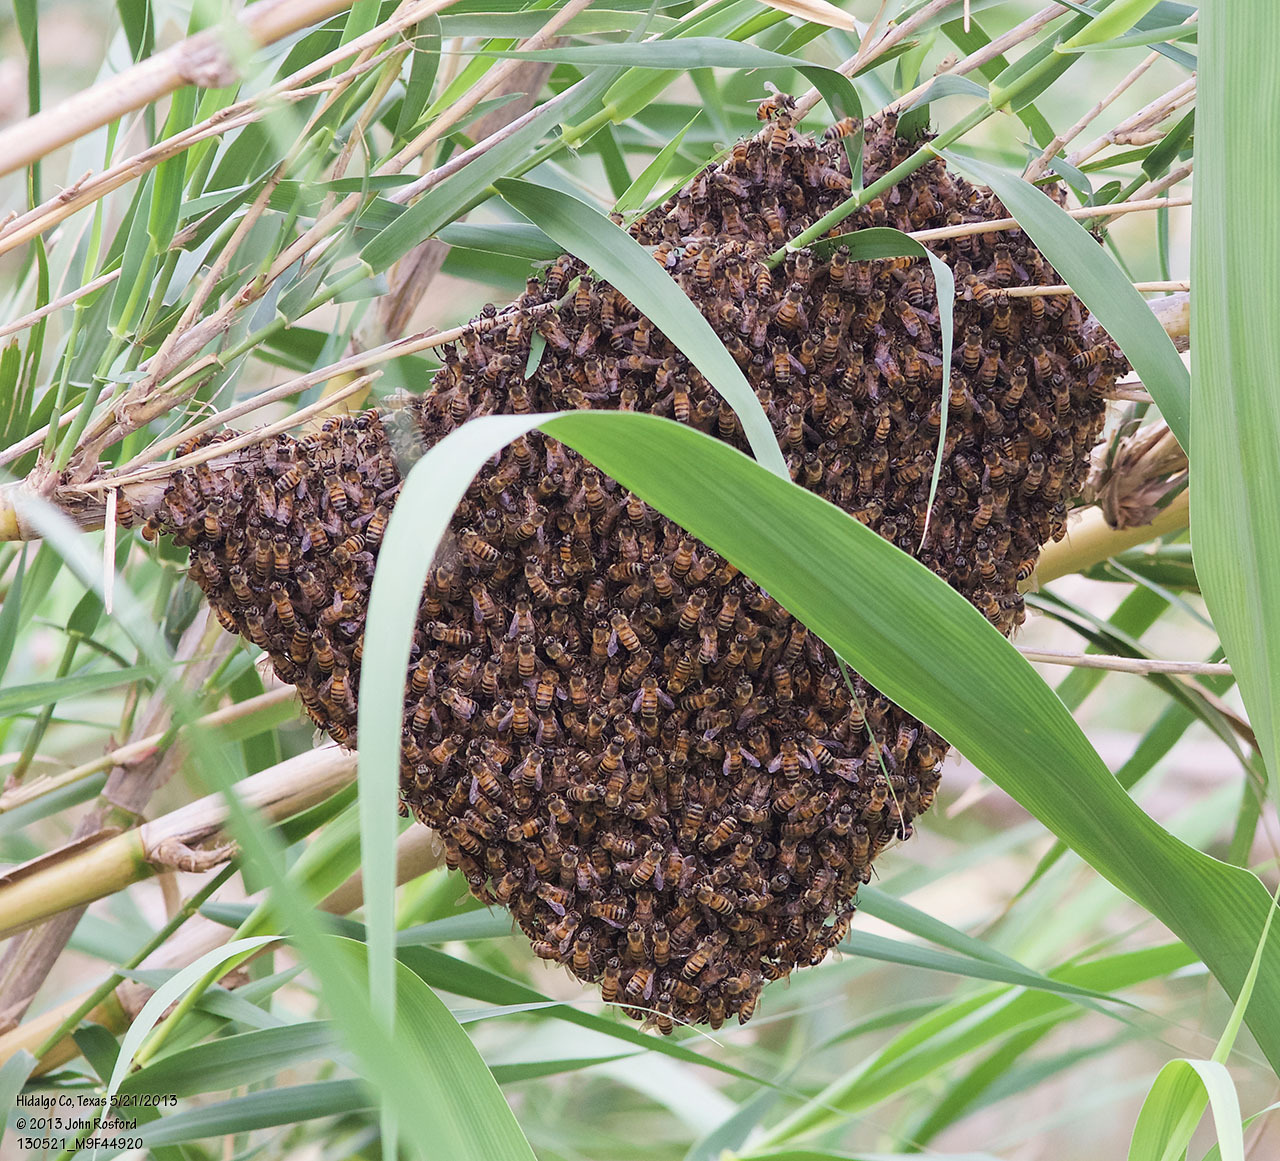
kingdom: Animalia
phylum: Arthropoda
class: Insecta
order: Hymenoptera
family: Apidae
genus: Apis
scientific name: Apis mellifera
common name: Honey bee
